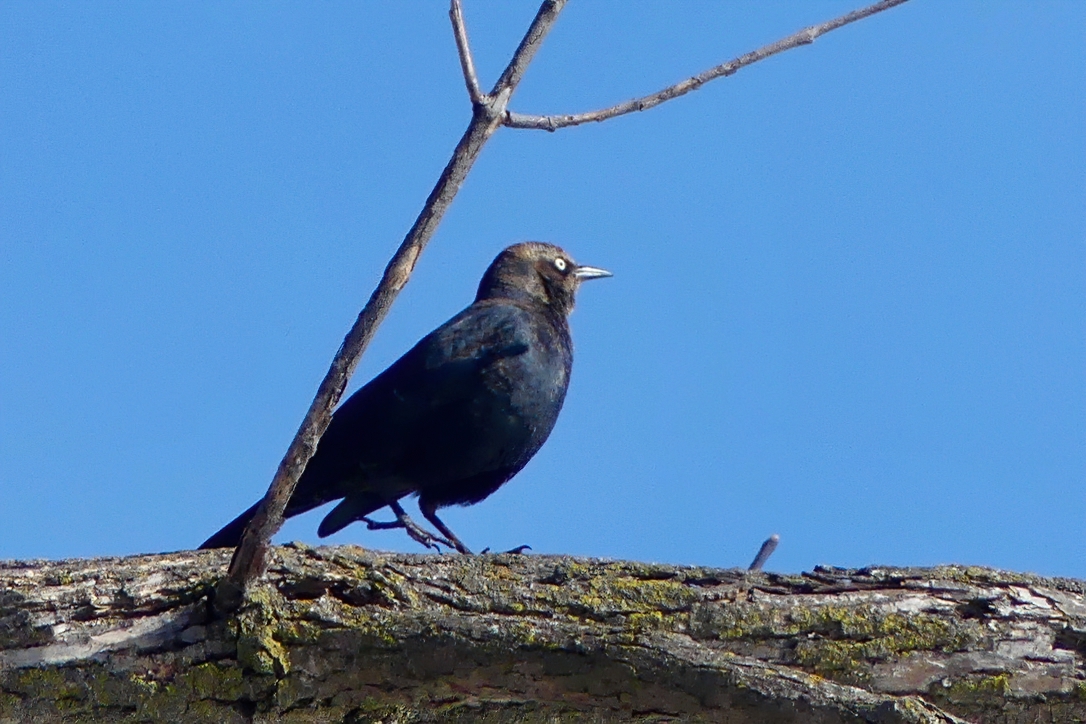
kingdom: Animalia
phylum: Chordata
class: Aves
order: Passeriformes
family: Icteridae
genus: Euphagus
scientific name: Euphagus carolinus
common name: Rusty blackbird
